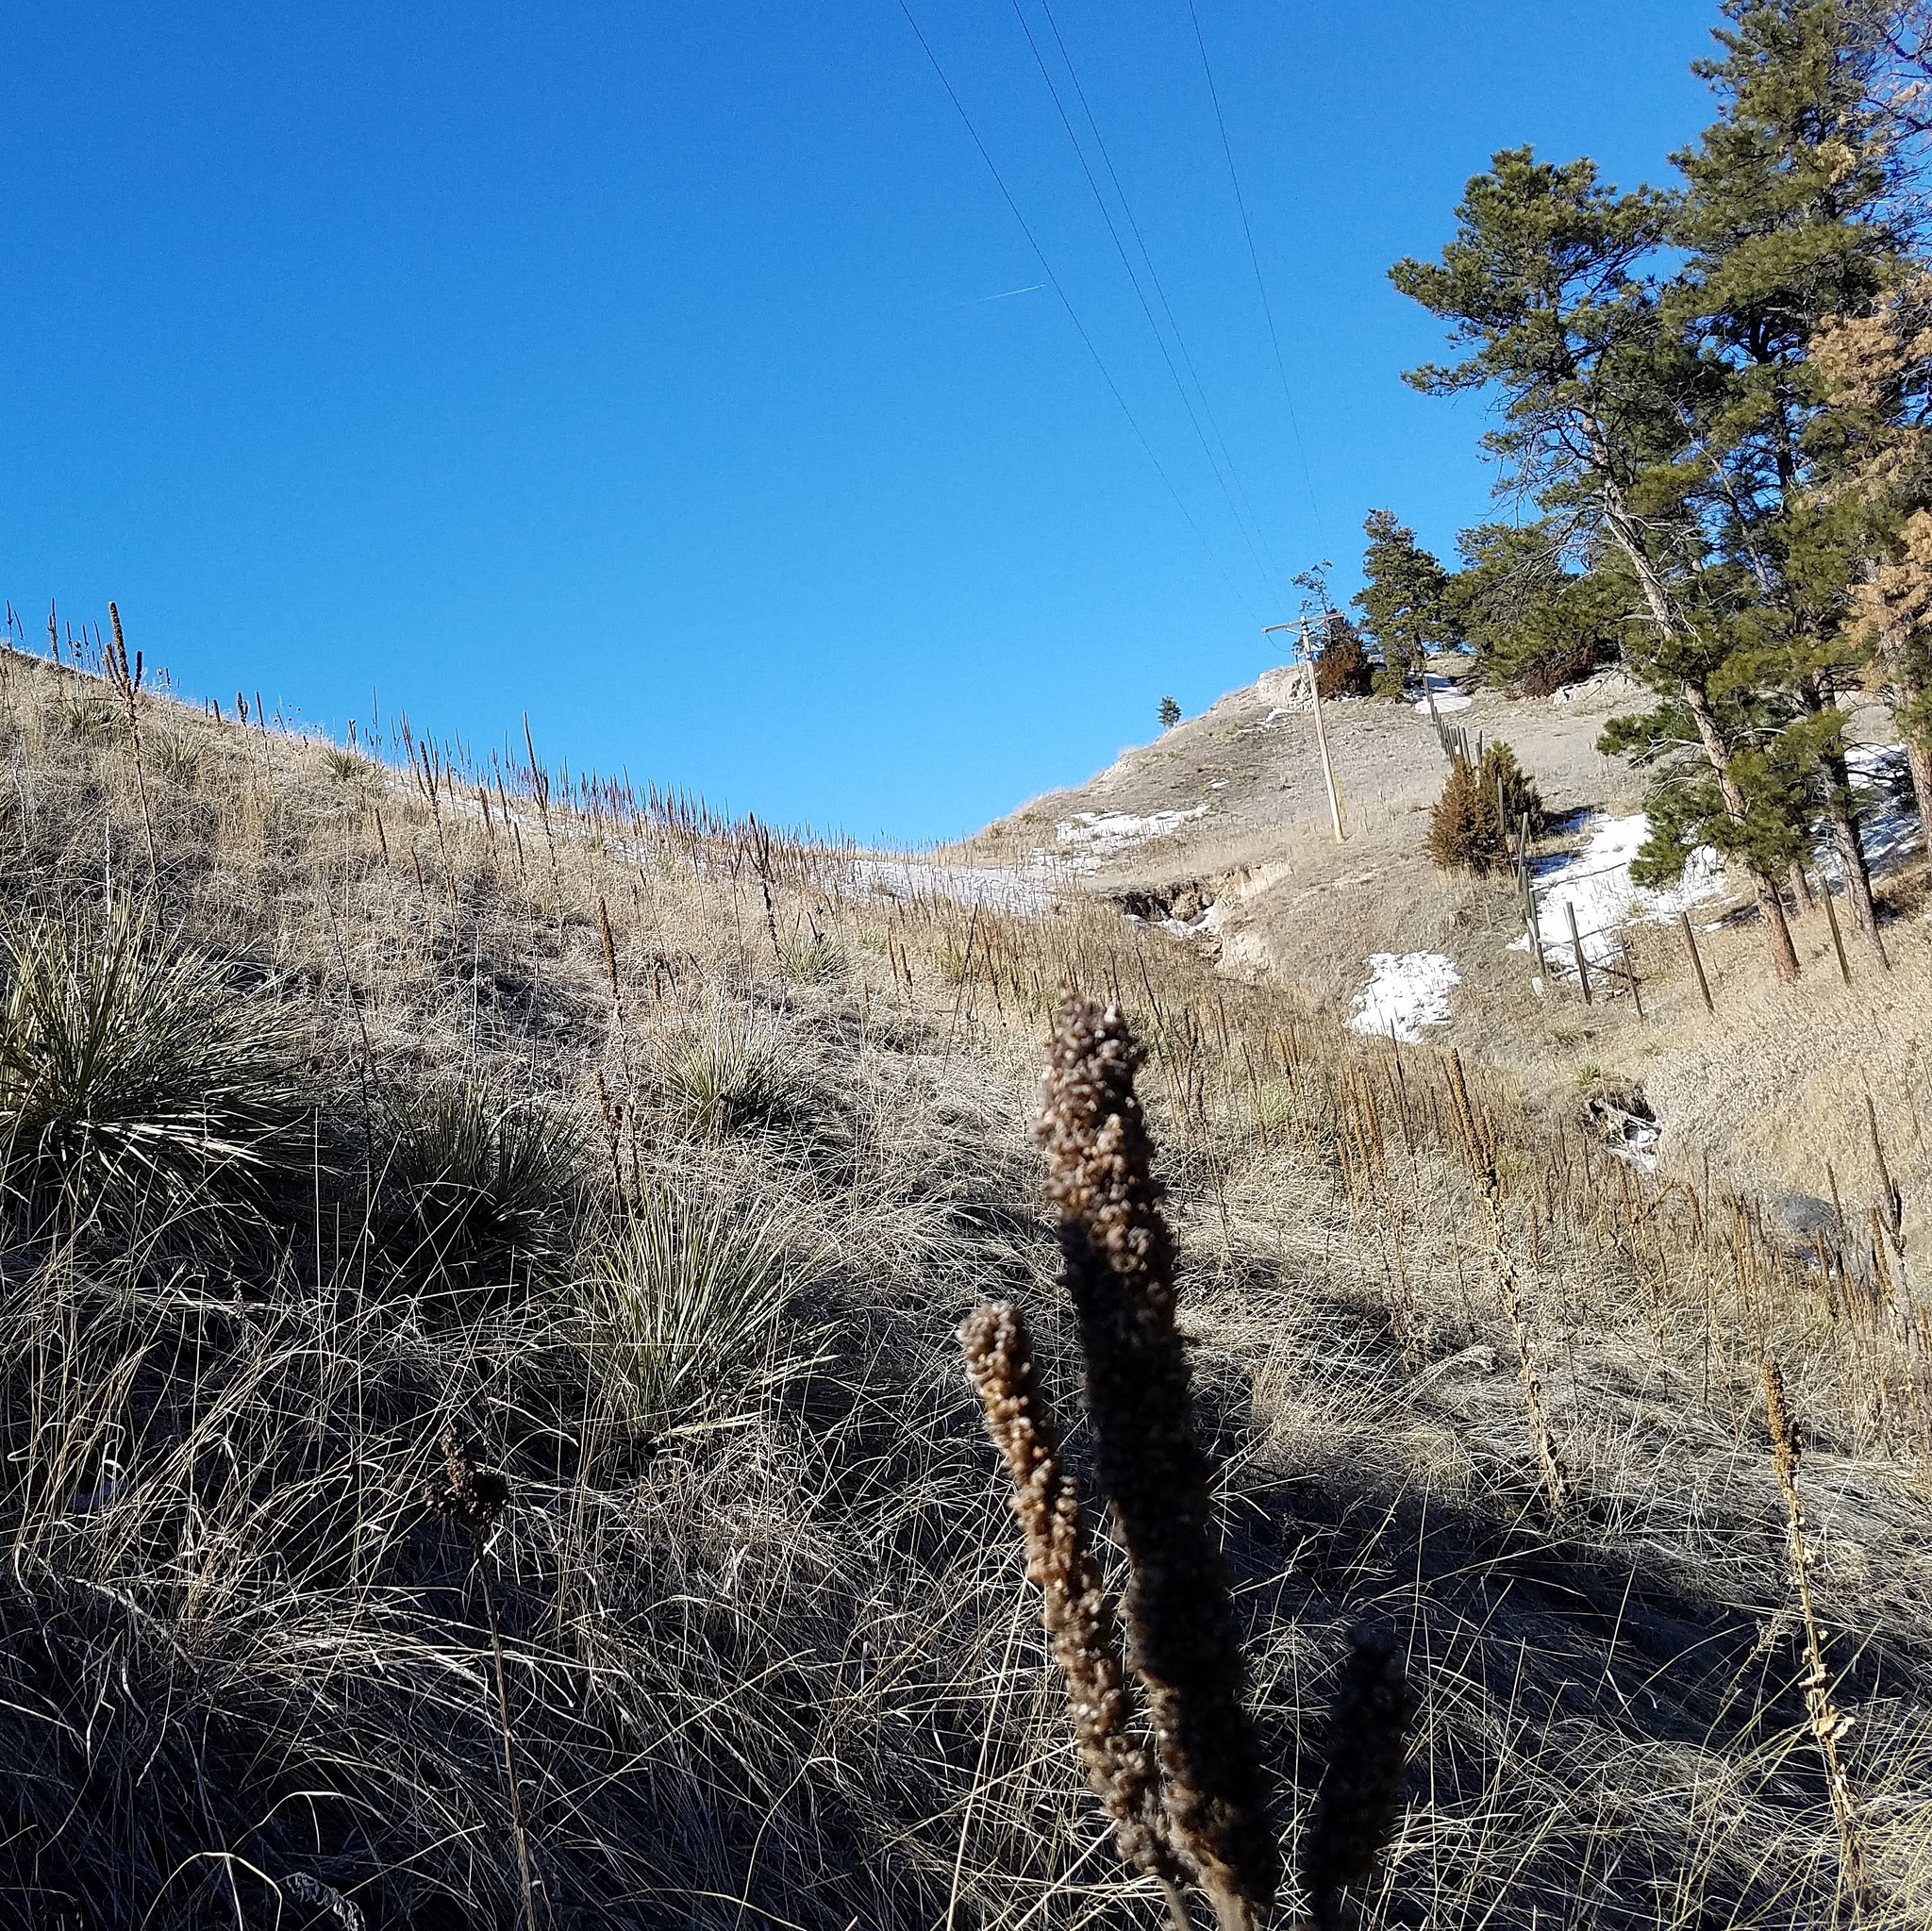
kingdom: Plantae
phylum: Tracheophyta
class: Magnoliopsida
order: Lamiales
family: Scrophulariaceae
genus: Verbascum
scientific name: Verbascum thapsus
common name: Common mullein
